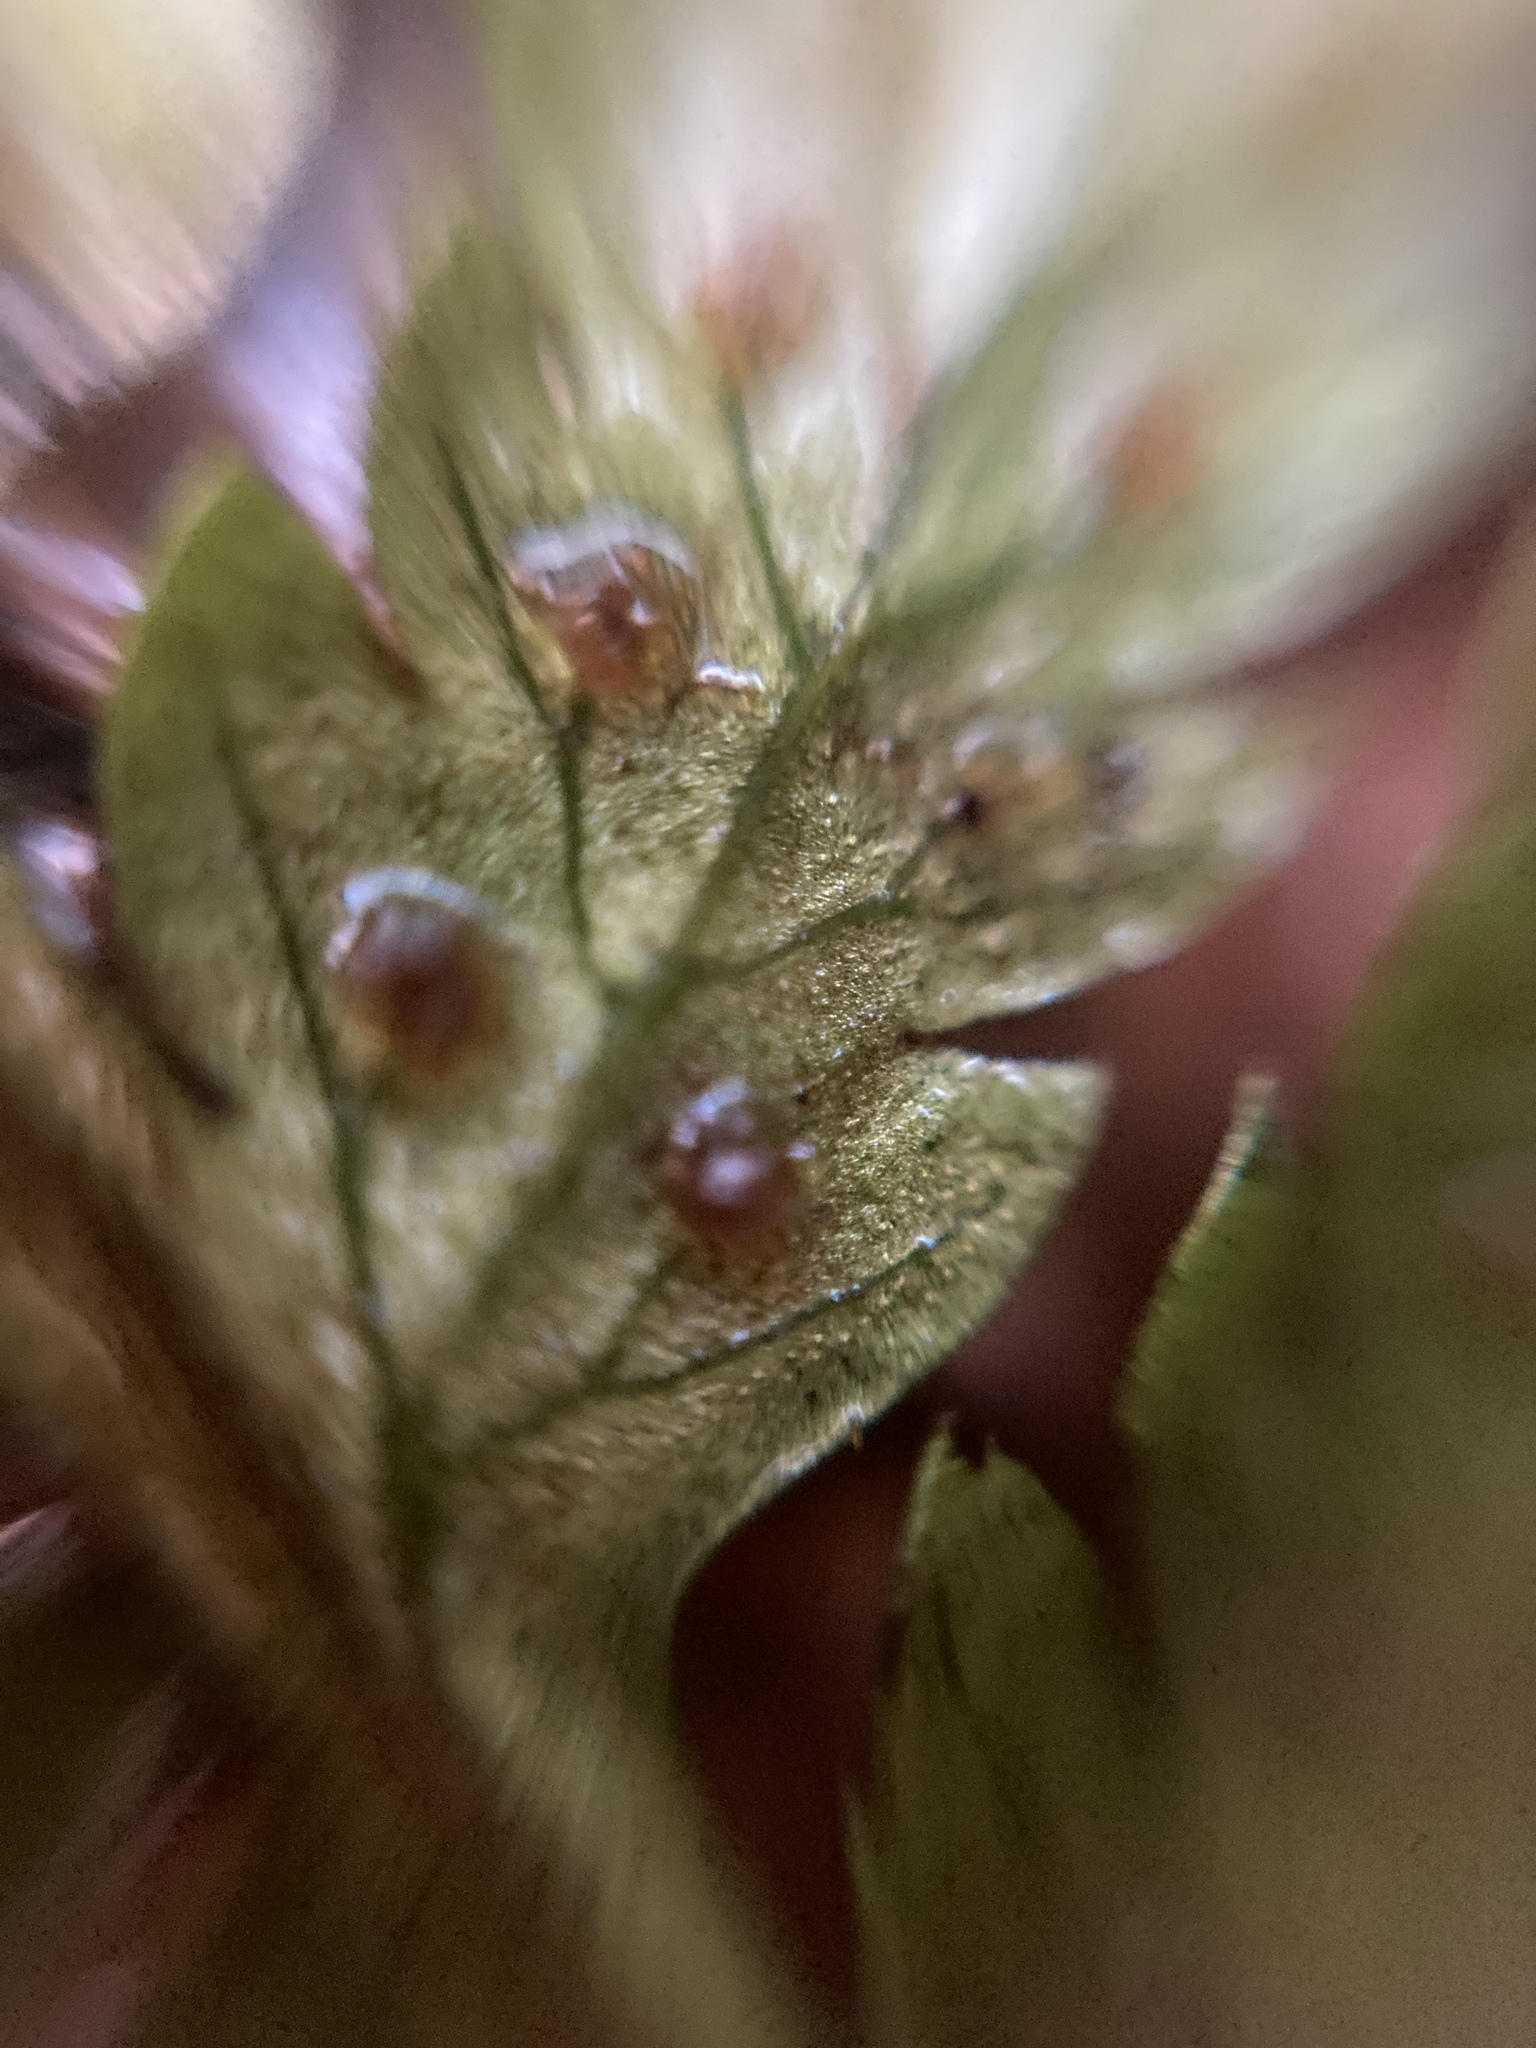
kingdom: Plantae
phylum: Tracheophyta
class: Polypodiopsida
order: Polypodiales
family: Dryopteridaceae
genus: Dryopteris
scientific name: Dryopteris carthusiana
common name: Narrow buckler-fern
